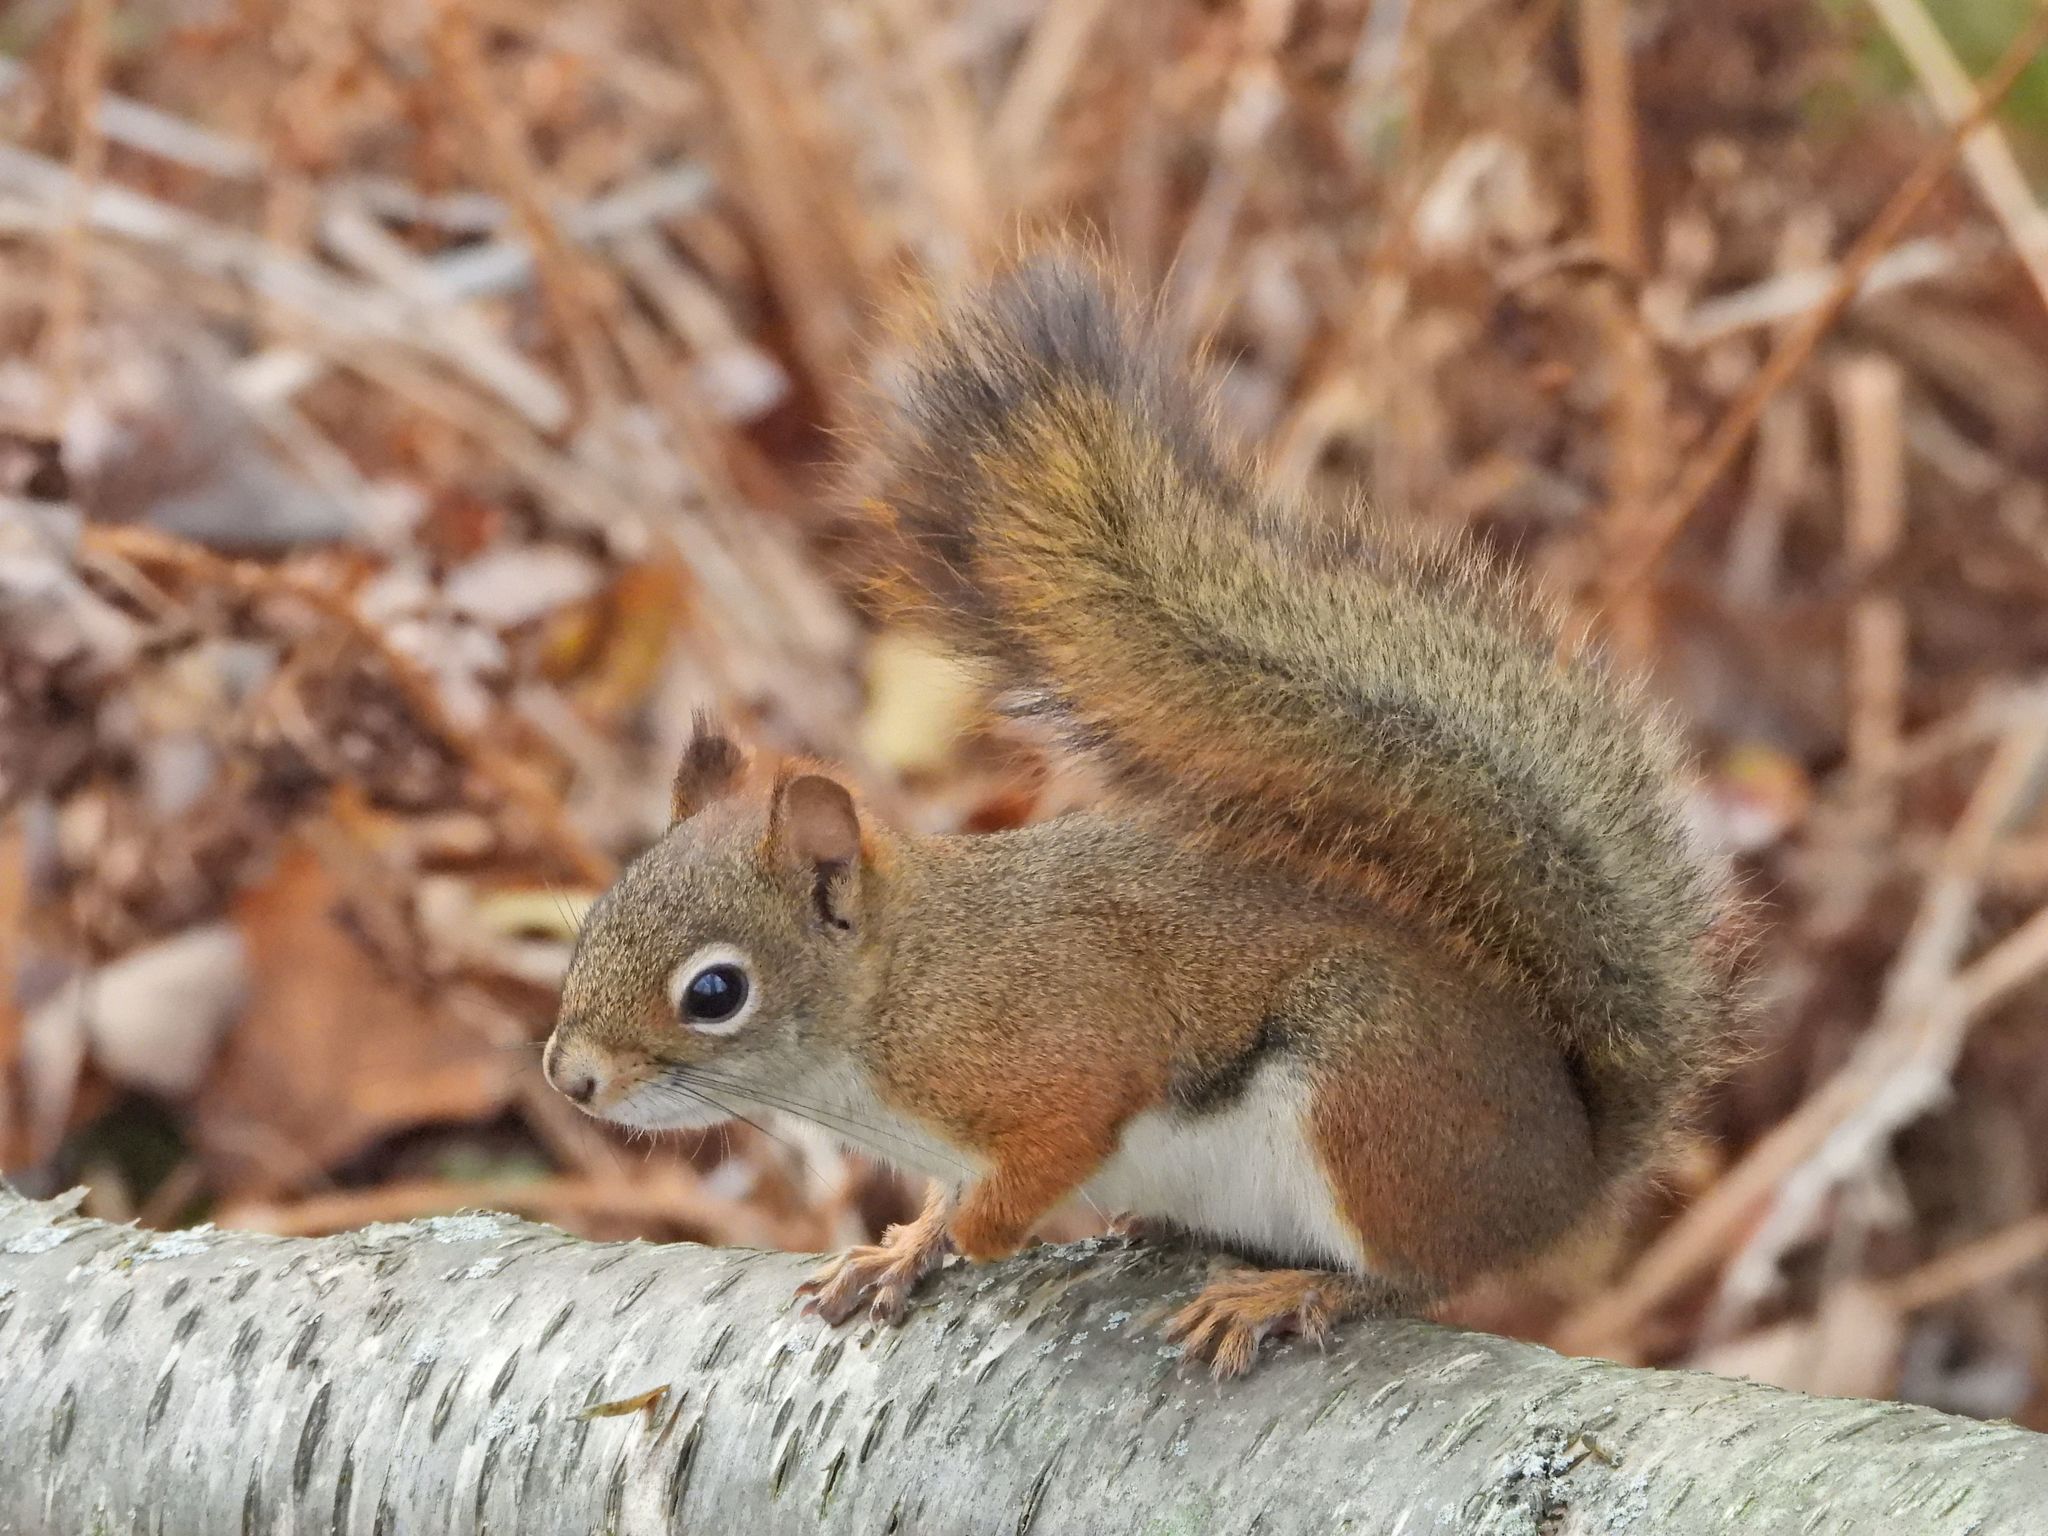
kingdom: Animalia
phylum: Chordata
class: Mammalia
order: Rodentia
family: Sciuridae
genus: Tamiasciurus
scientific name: Tamiasciurus hudsonicus
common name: Red squirrel
